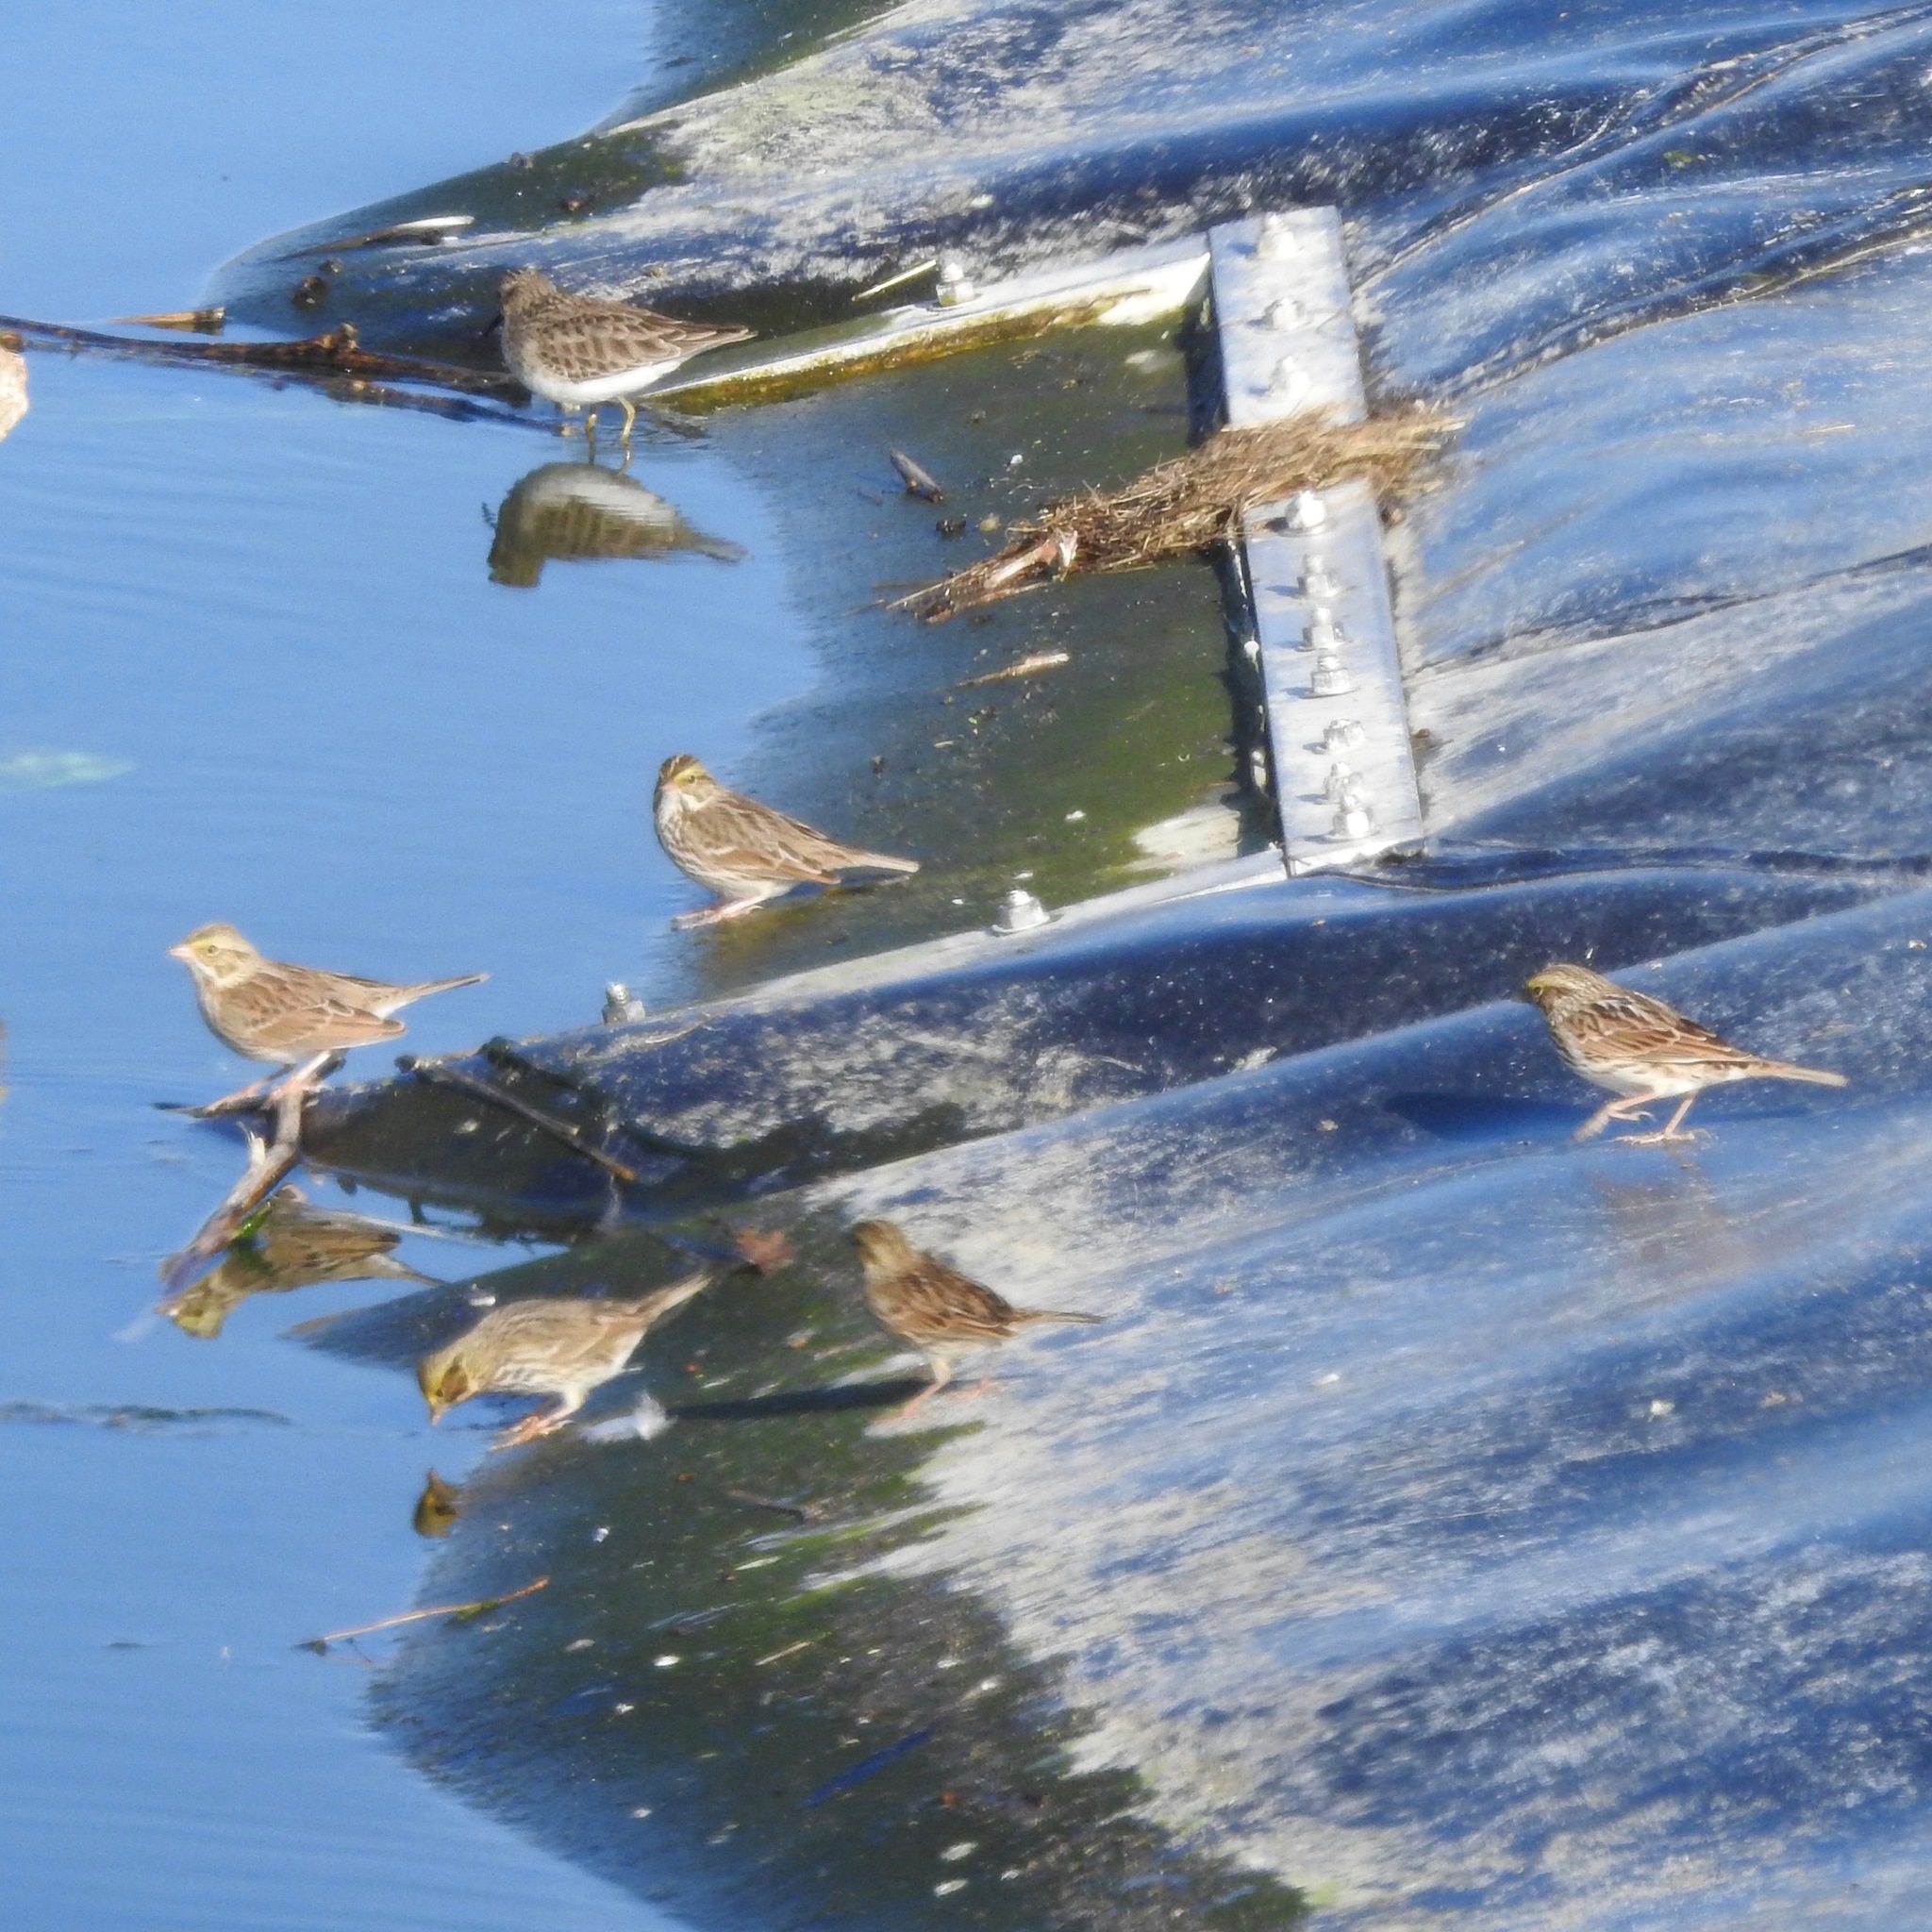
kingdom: Animalia
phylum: Chordata
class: Aves
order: Charadriiformes
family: Scolopacidae
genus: Calidris
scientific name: Calidris minutilla
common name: Least sandpiper
